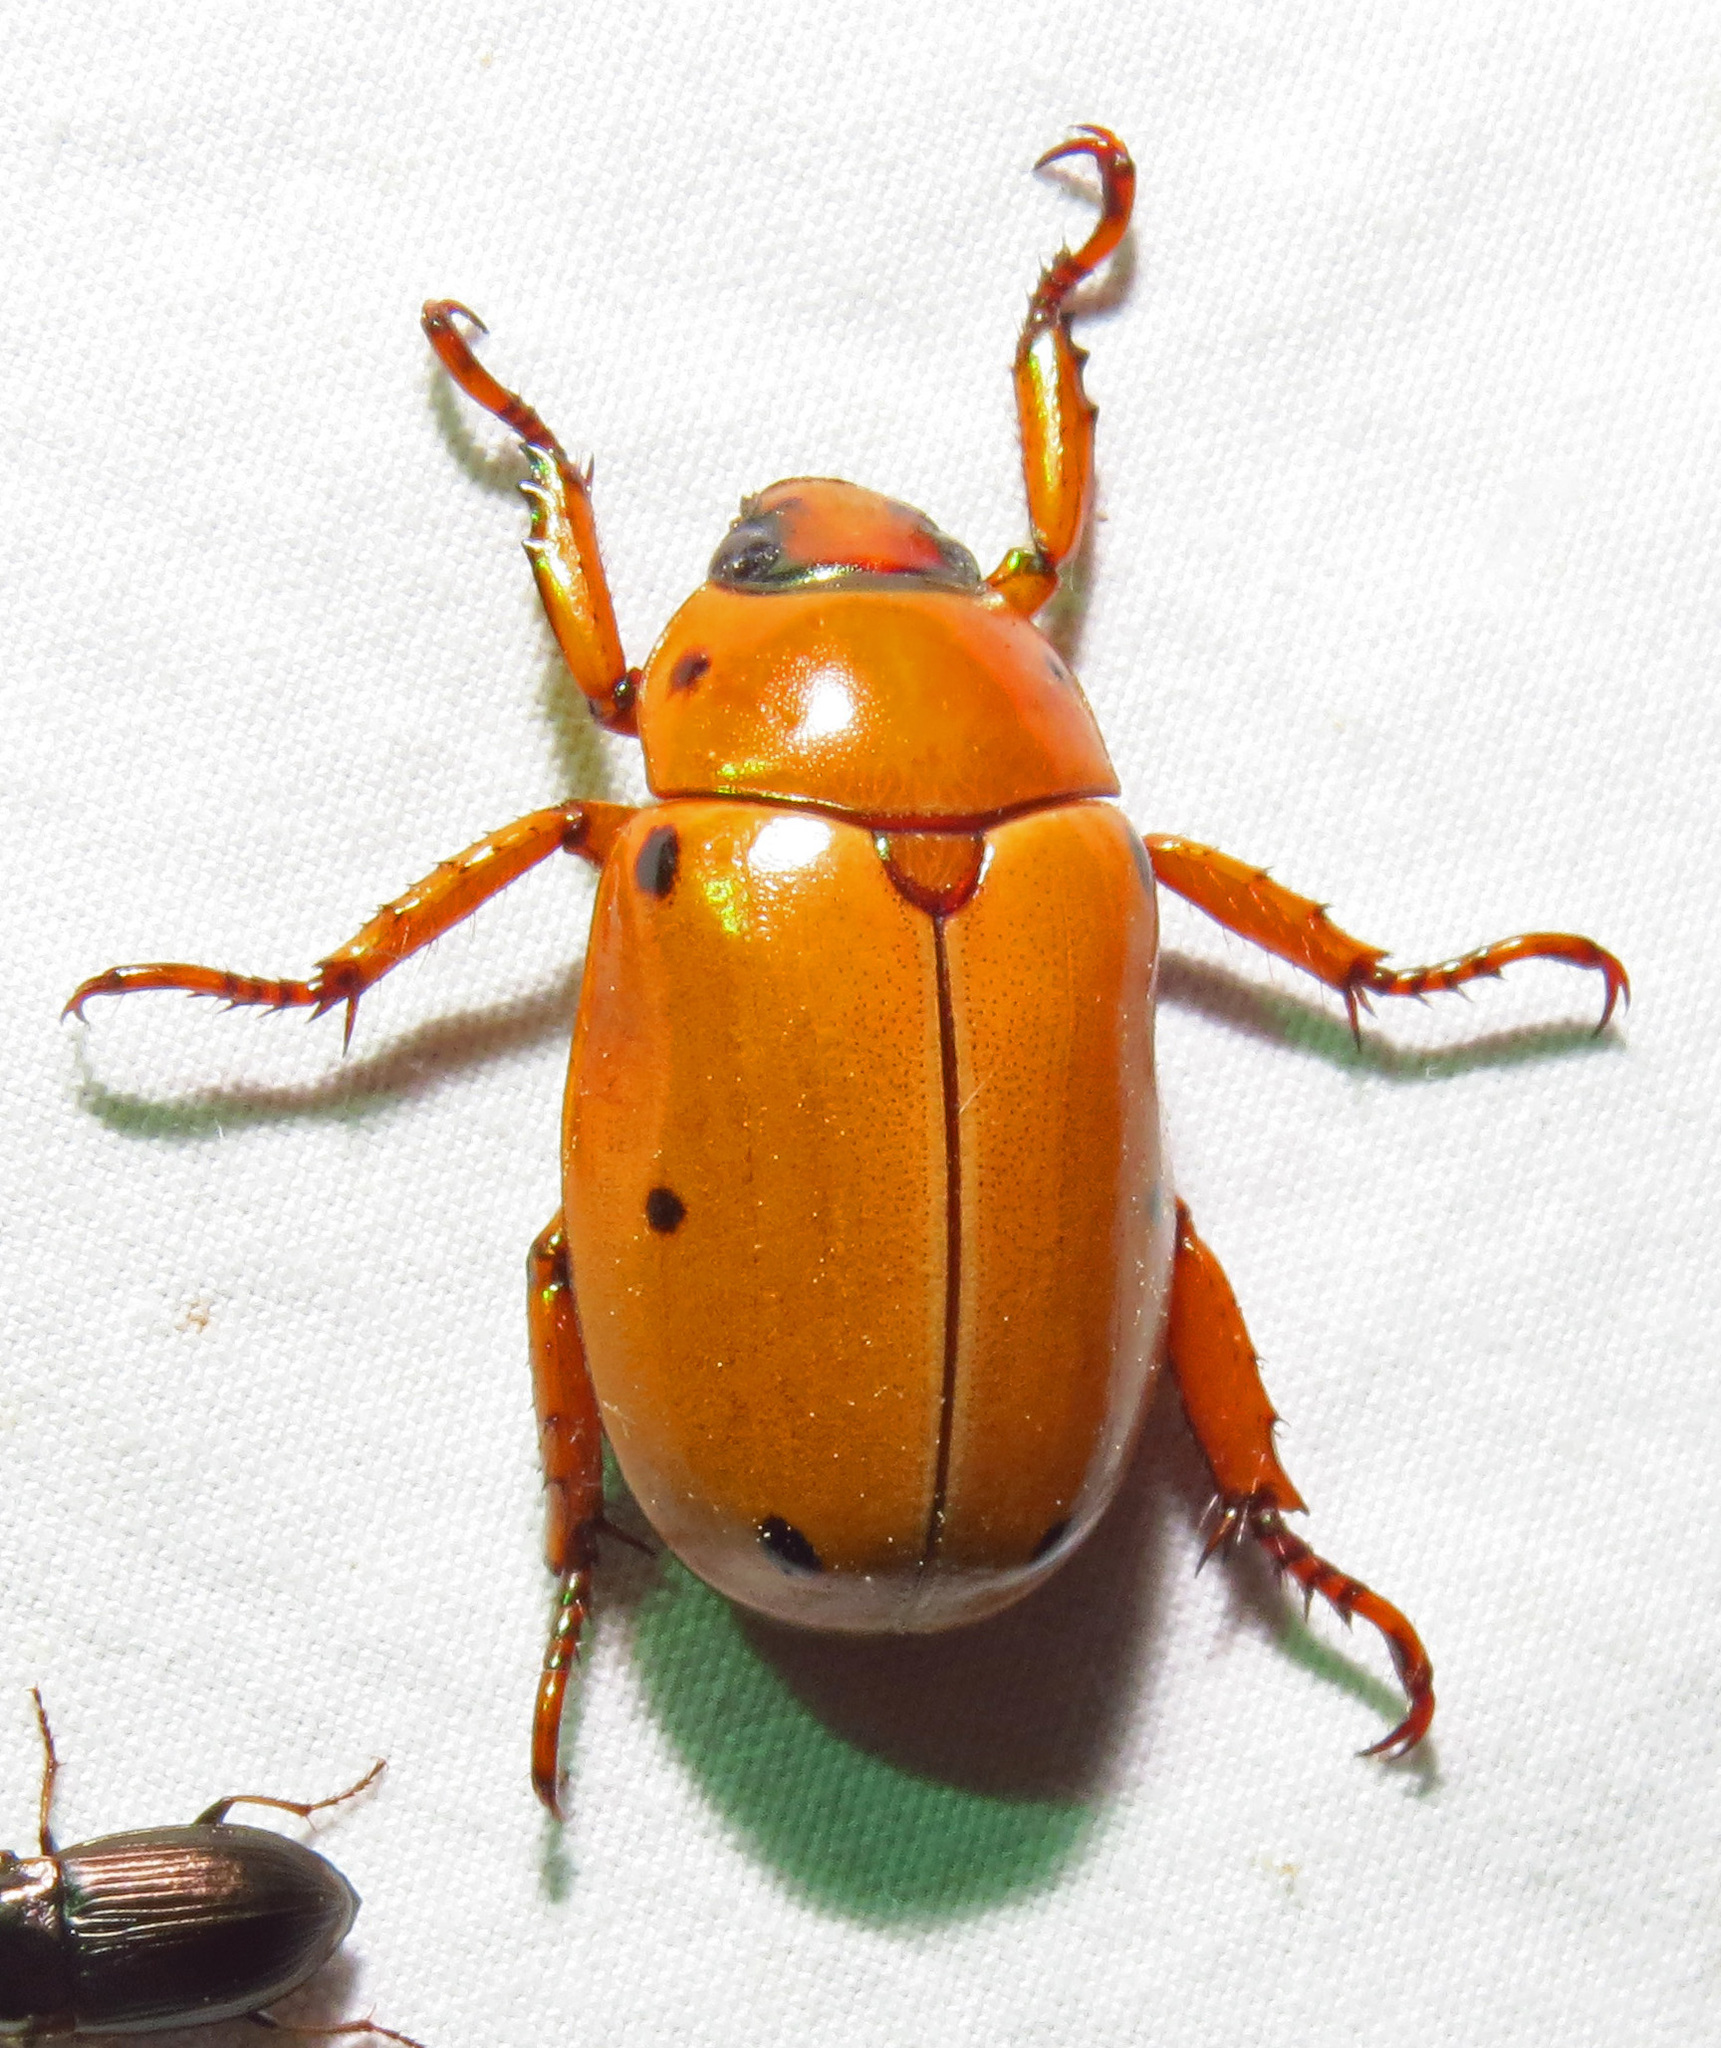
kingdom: Animalia
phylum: Arthropoda
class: Insecta
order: Coleoptera
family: Scarabaeidae
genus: Pelidnota
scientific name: Pelidnota punctata
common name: Grapevine beetle
